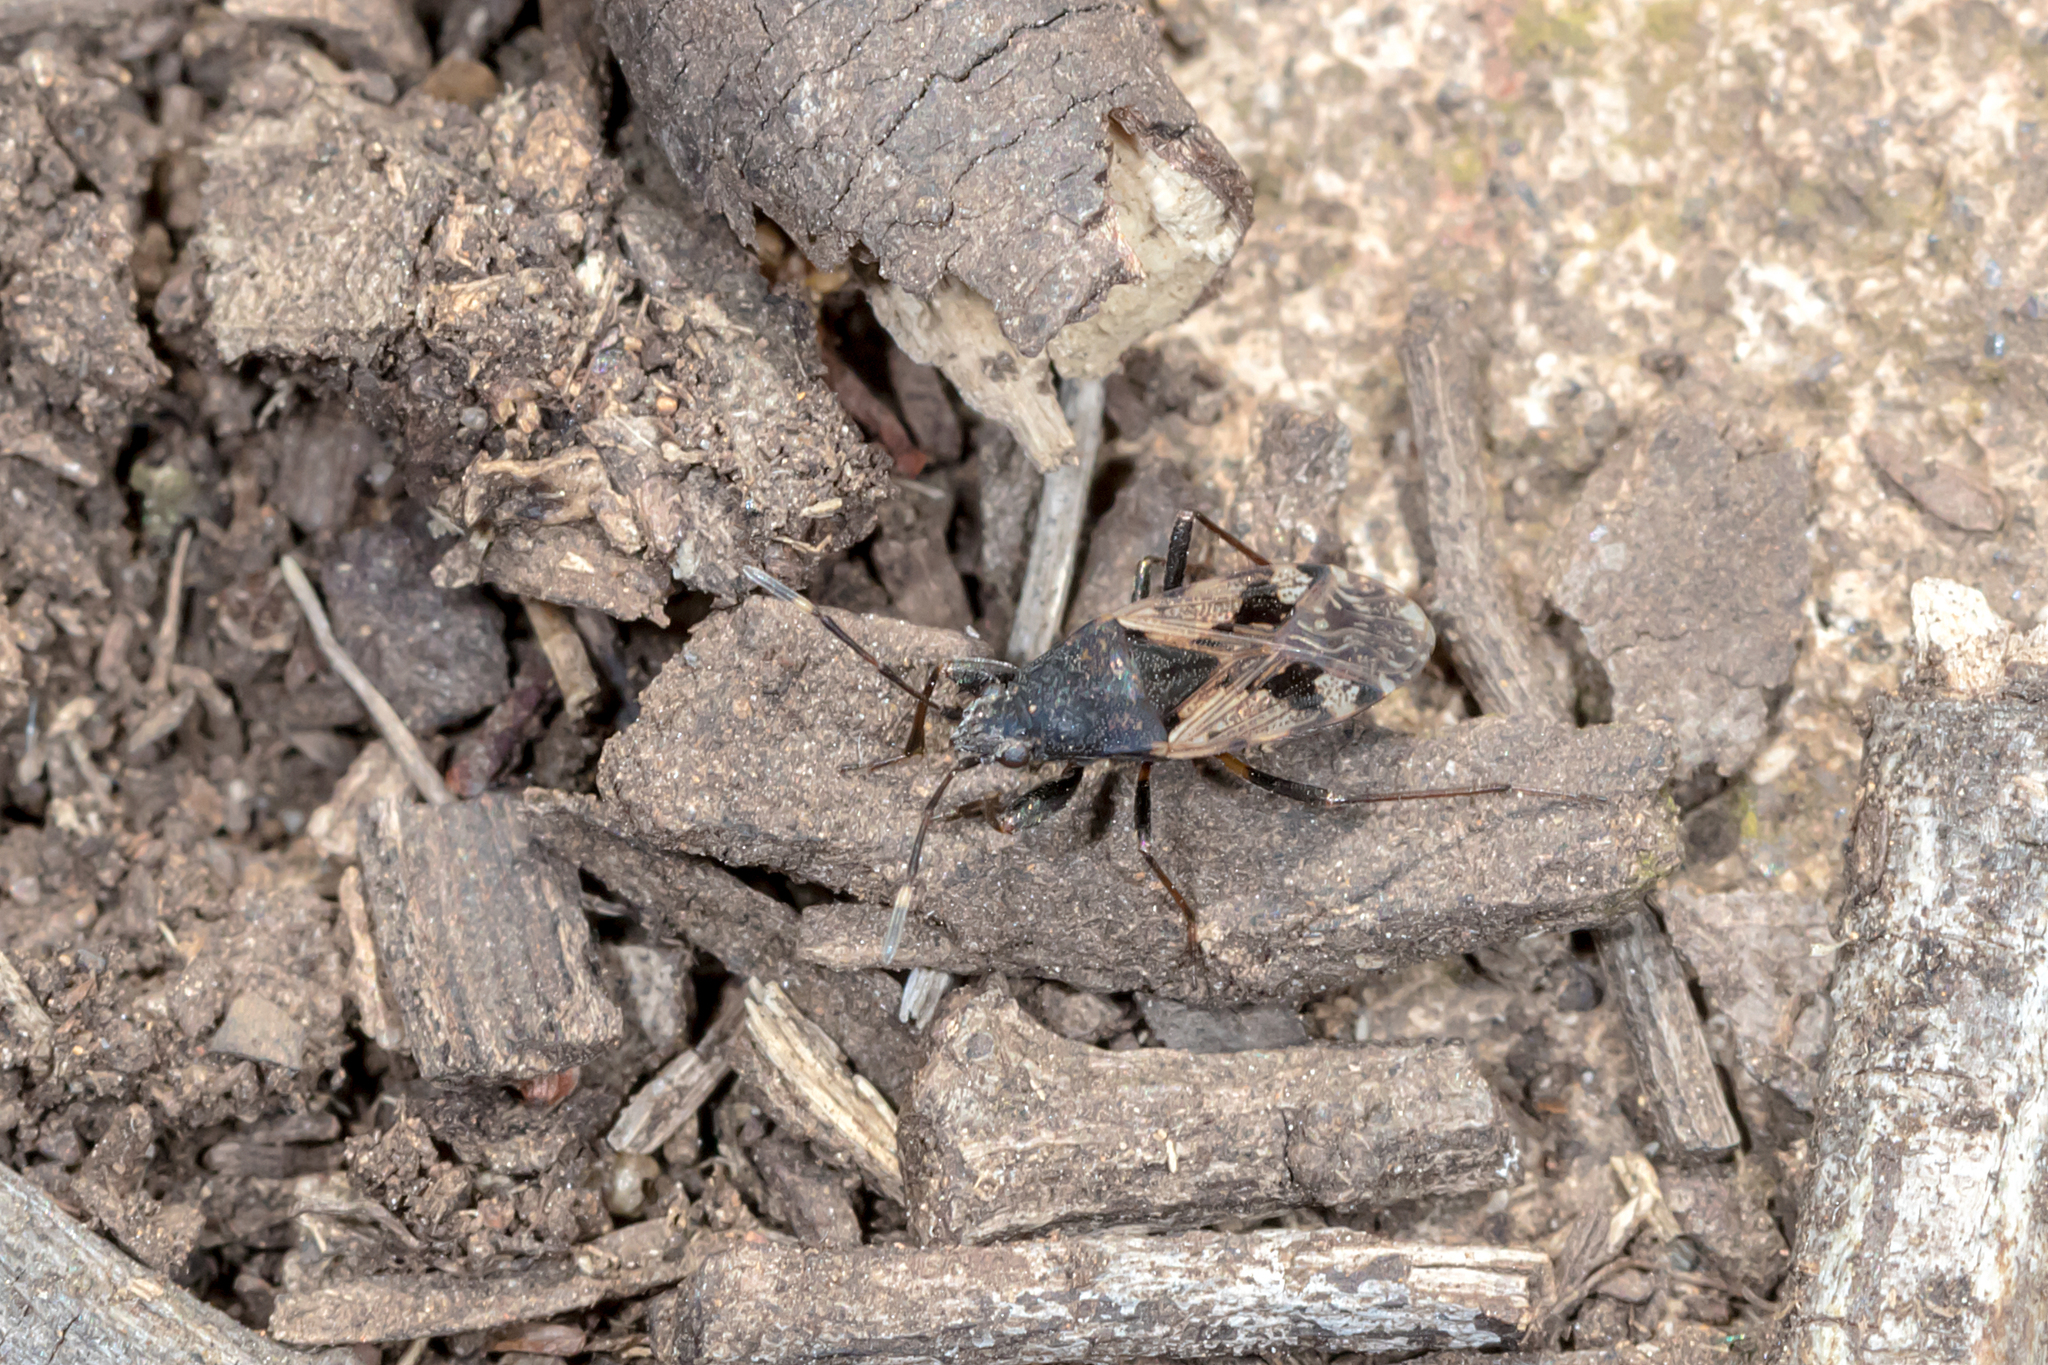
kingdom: Animalia
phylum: Arthropoda
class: Insecta
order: Hemiptera
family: Rhyparochromidae
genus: Euander
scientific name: Euander lacertosus
